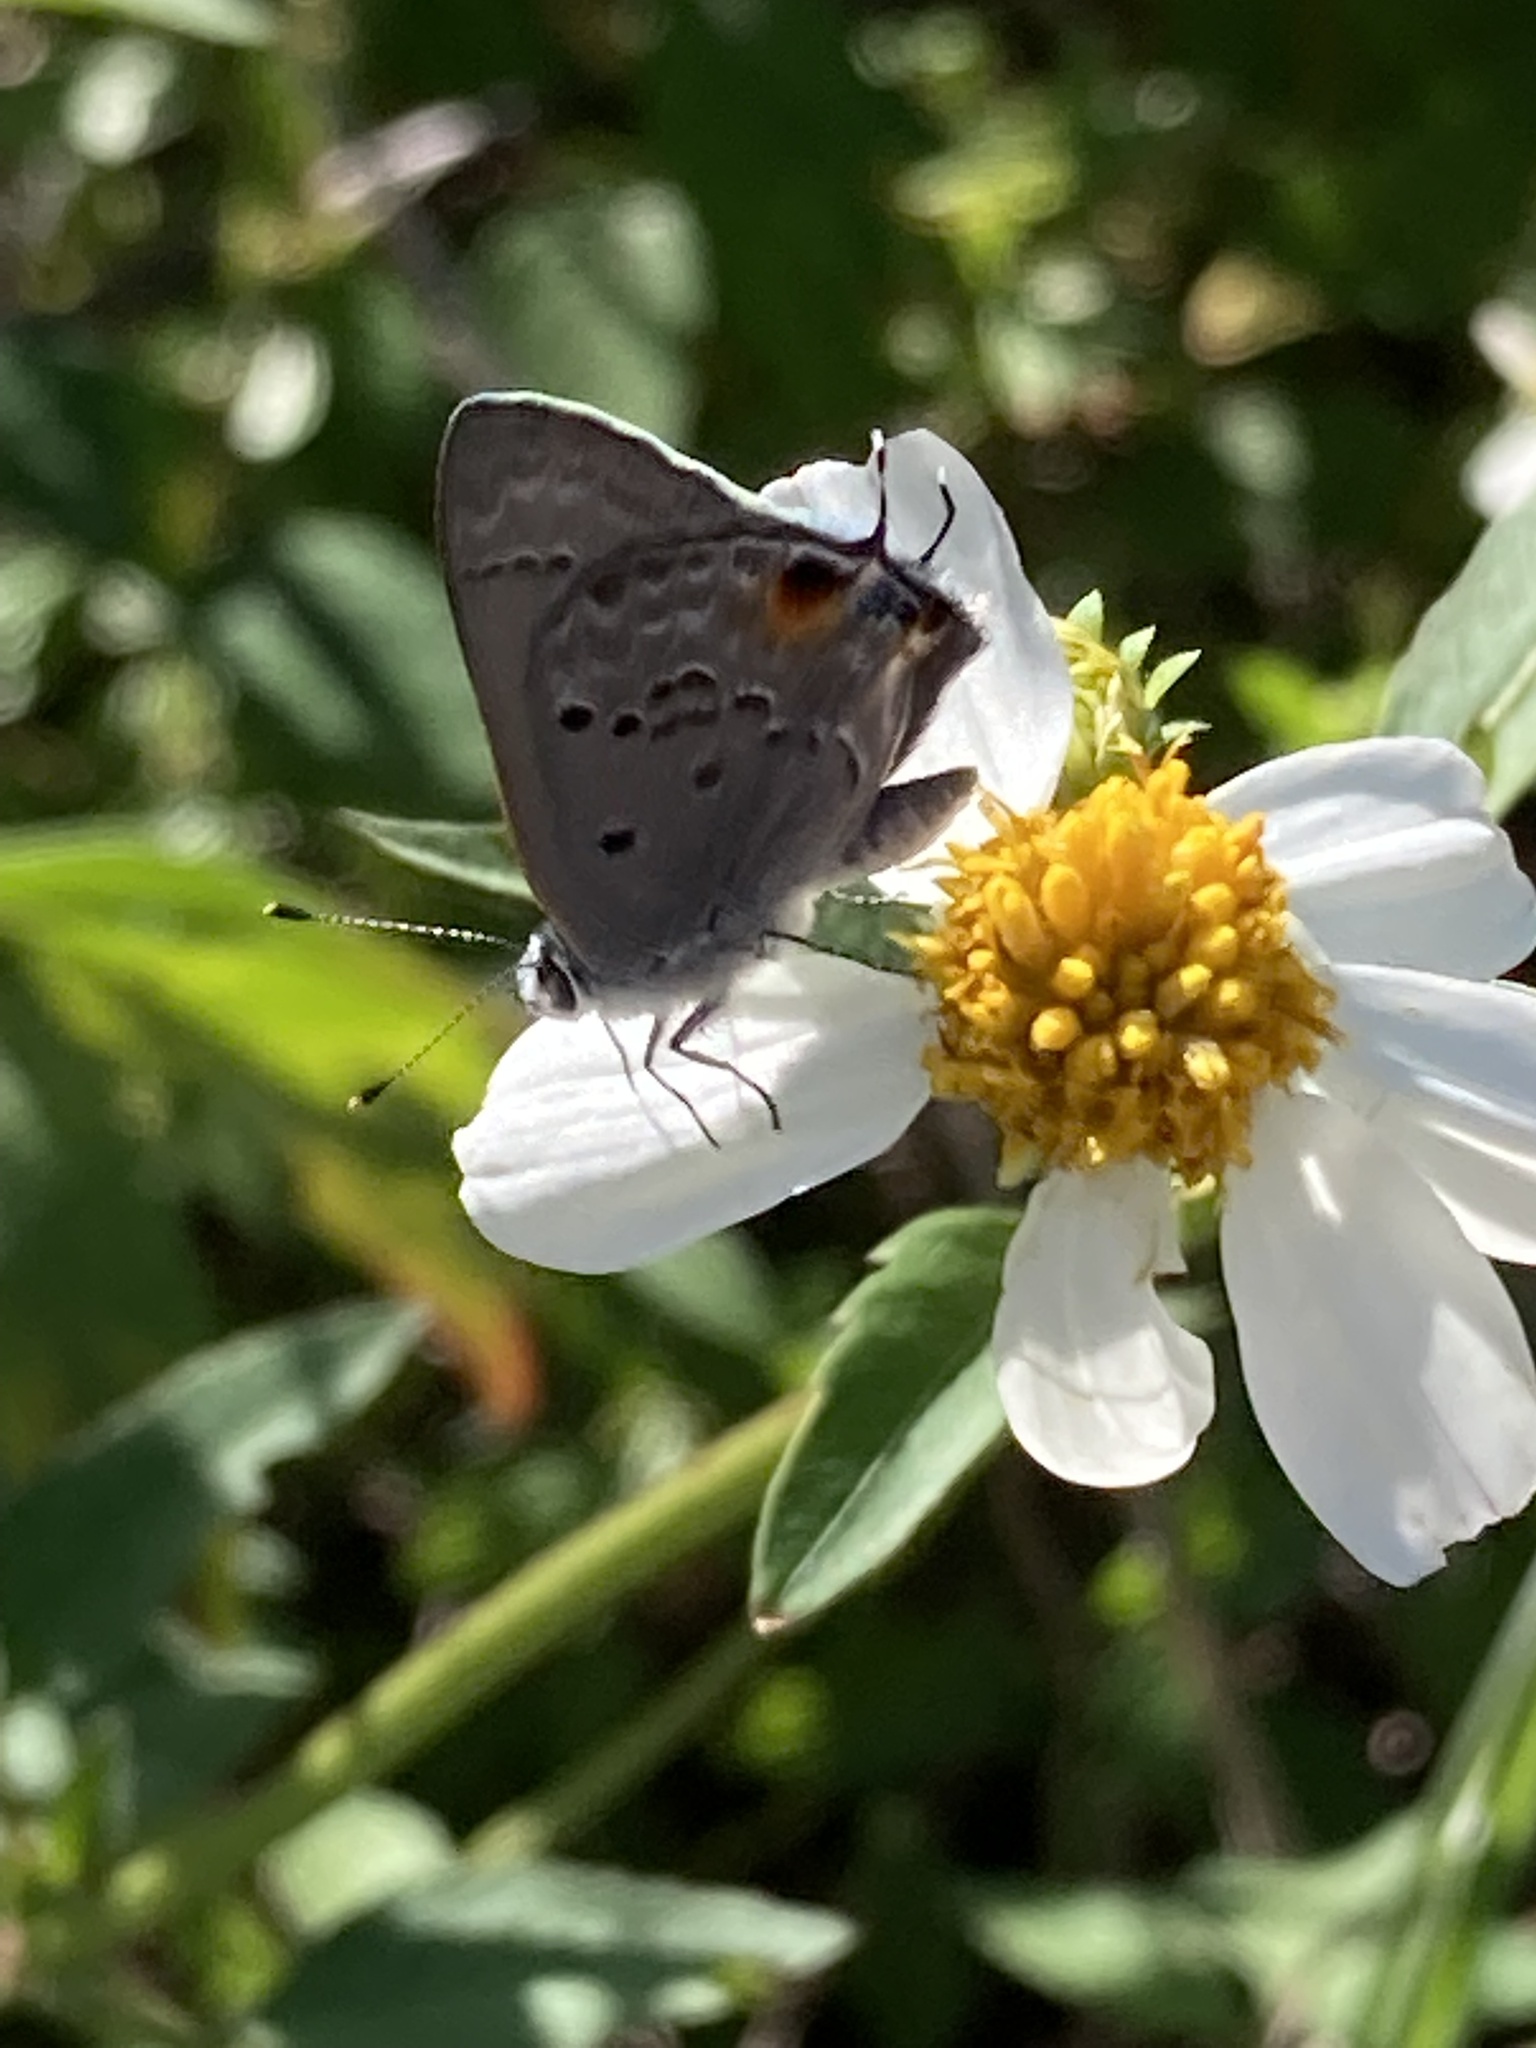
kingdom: Animalia
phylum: Arthropoda
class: Insecta
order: Lepidoptera
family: Lycaenidae
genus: Callicista
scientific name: Callicista columella
